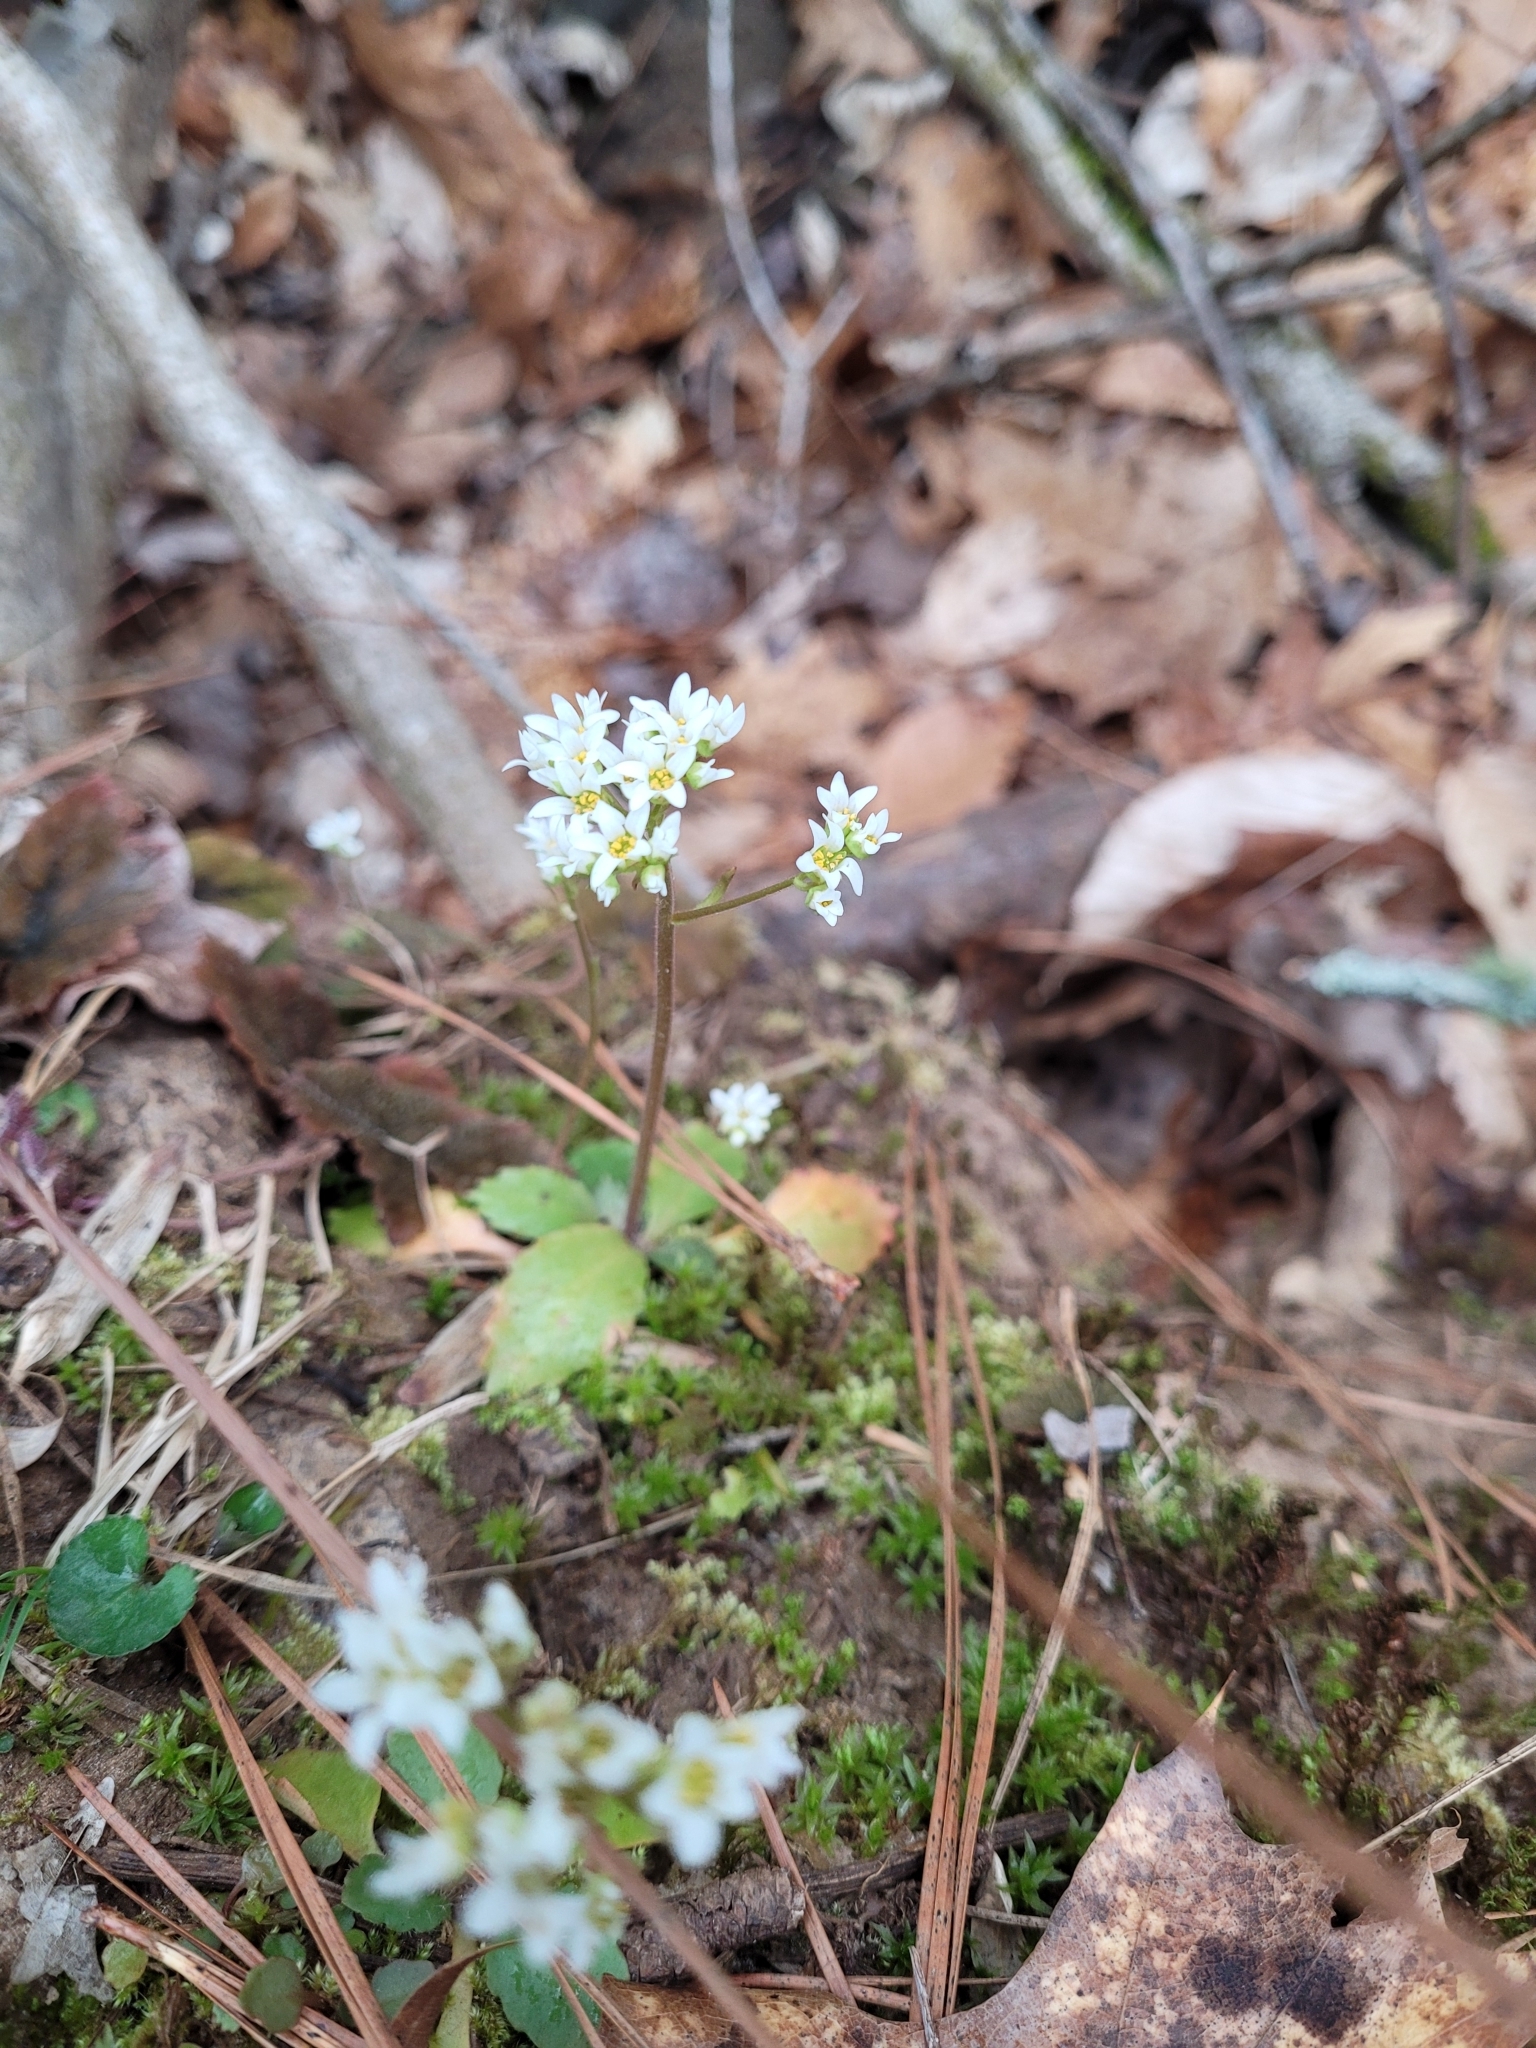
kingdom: Plantae
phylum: Tracheophyta
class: Magnoliopsida
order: Saxifragales
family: Saxifragaceae
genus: Micranthes
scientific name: Micranthes virginiensis
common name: Early saxifrage
